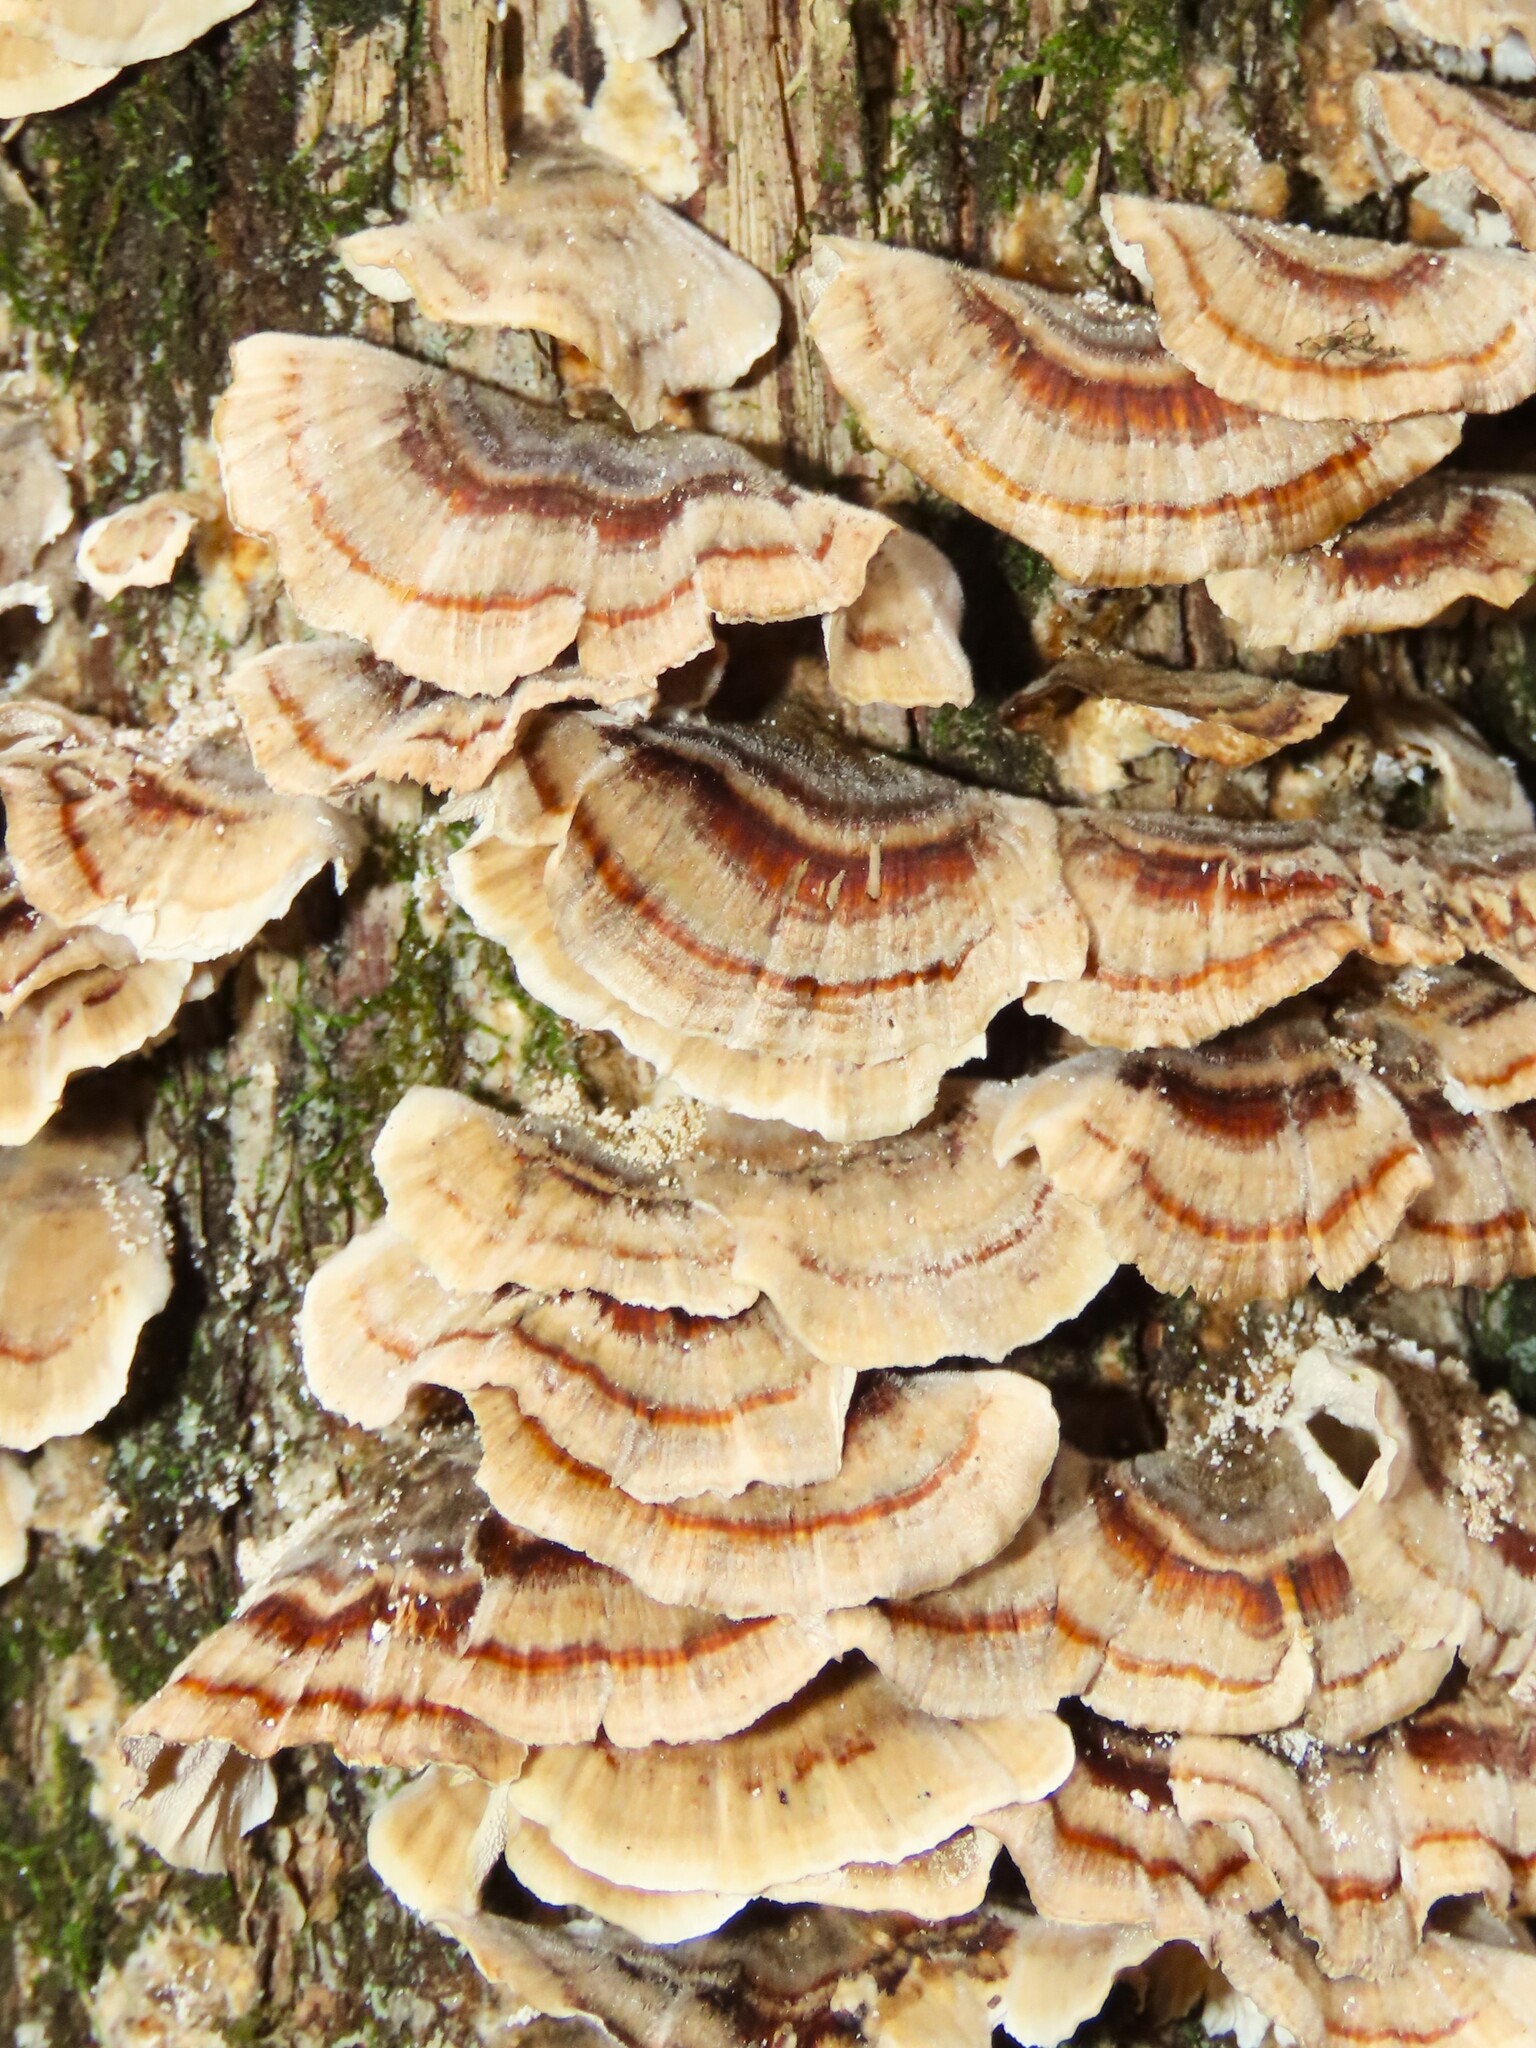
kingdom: Fungi
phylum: Basidiomycota
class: Agaricomycetes
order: Polyporales
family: Polyporaceae
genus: Trametes
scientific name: Trametes versicolor
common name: Turkeytail
